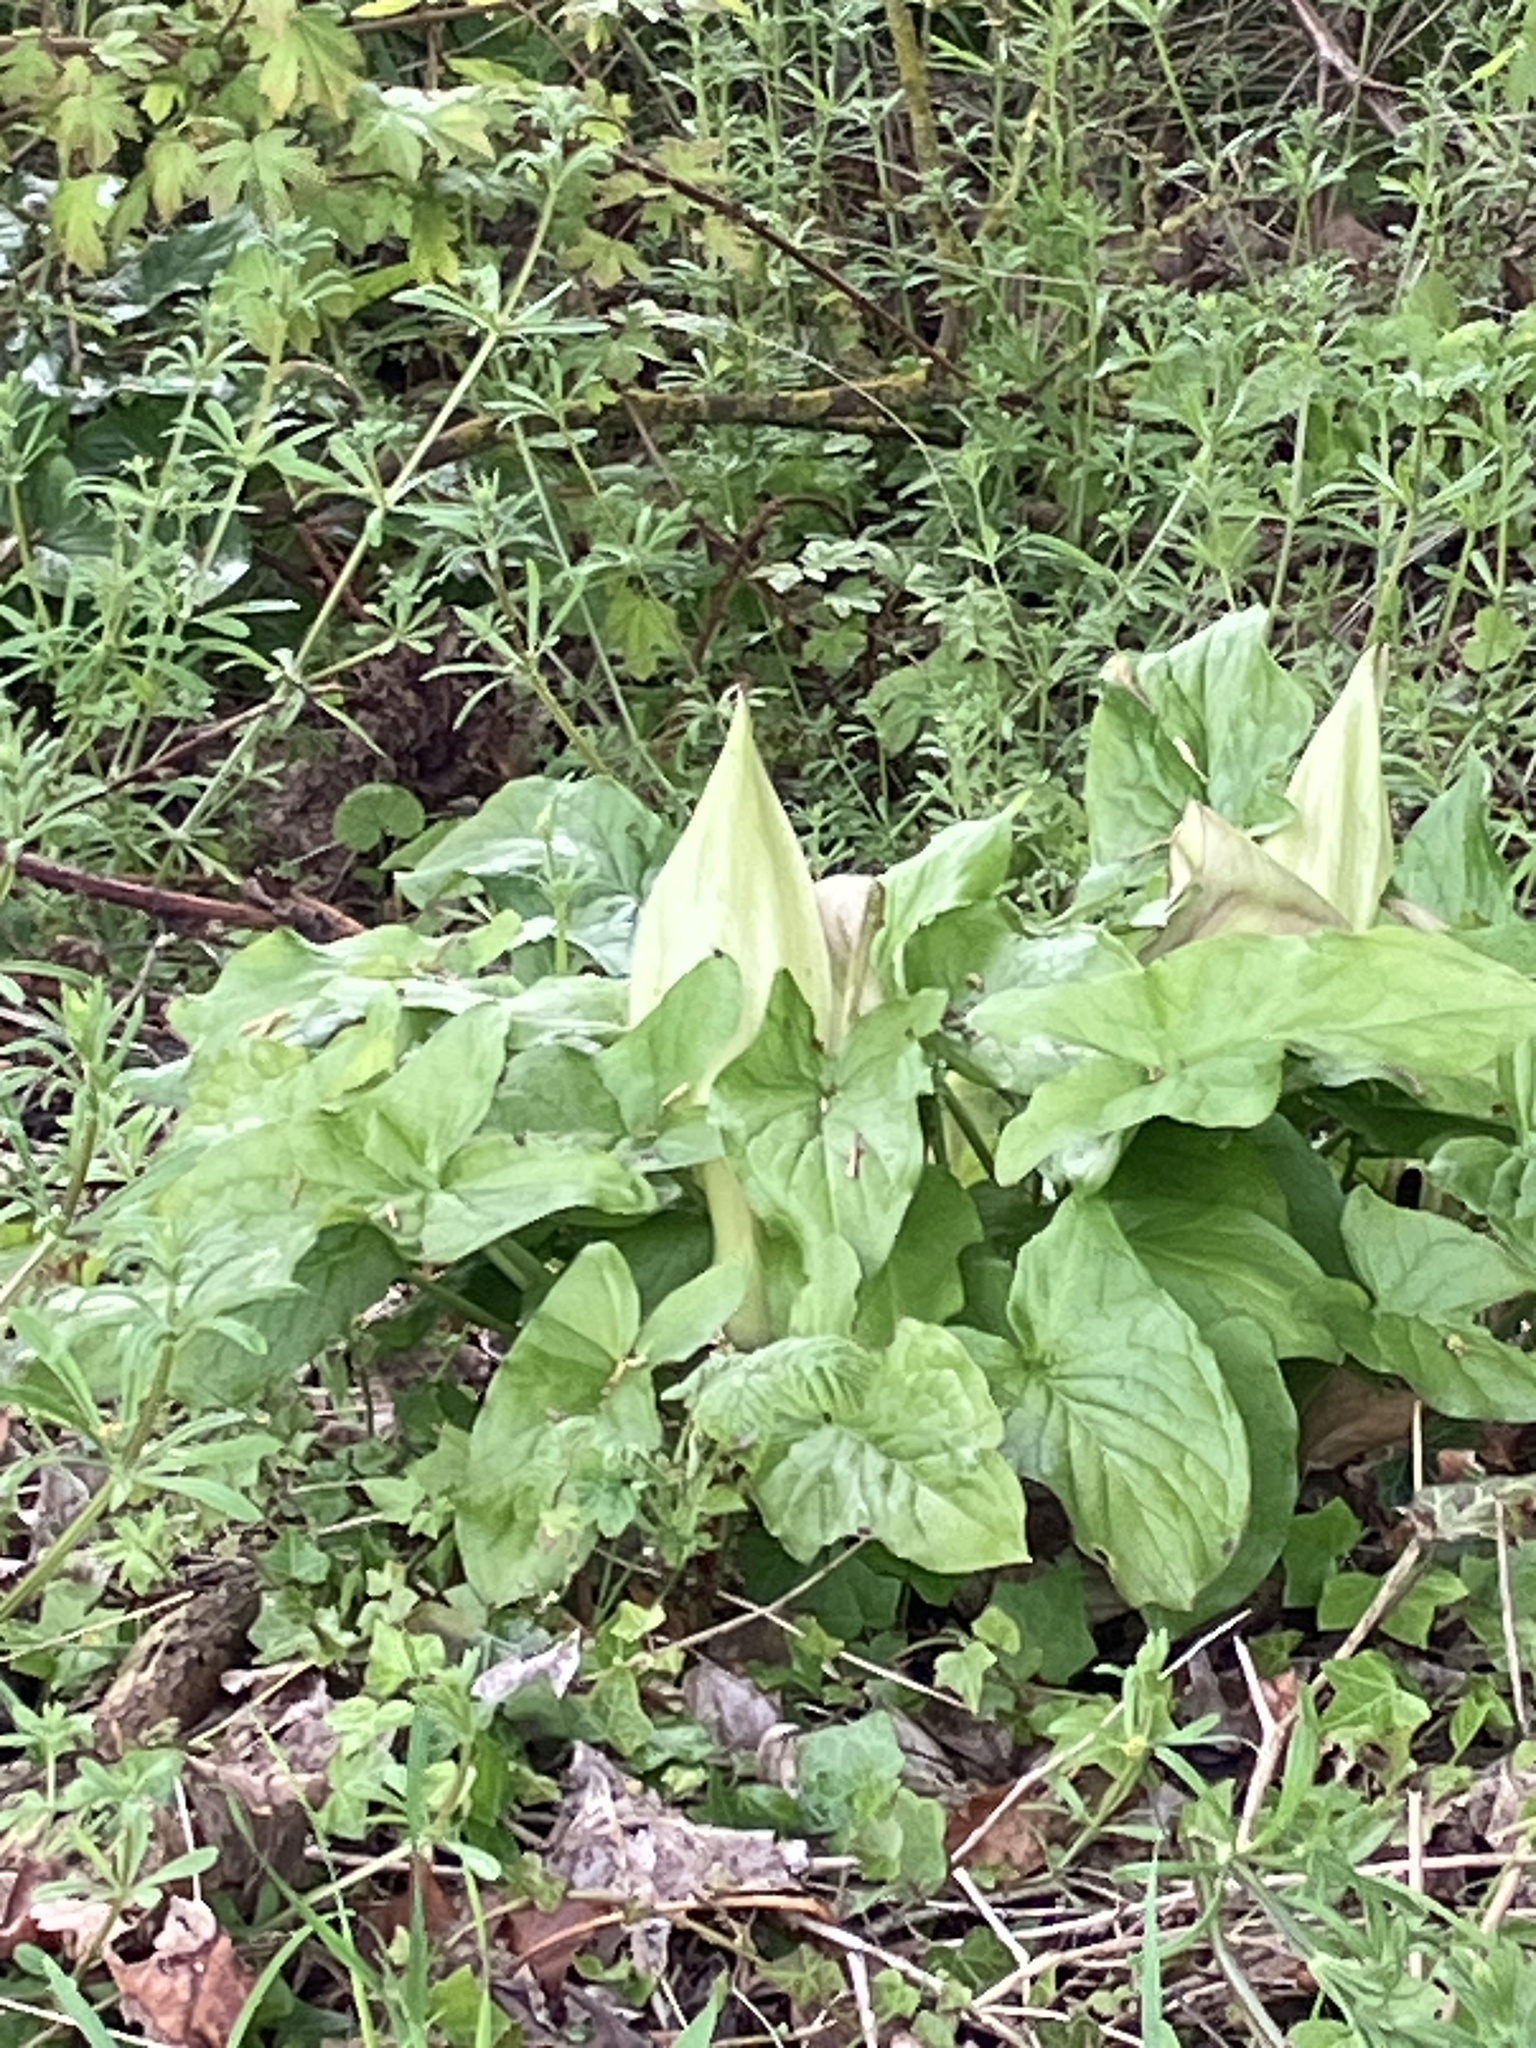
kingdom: Plantae
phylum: Tracheophyta
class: Liliopsida
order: Alismatales
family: Araceae
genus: Arum
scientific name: Arum maculatum
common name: Lords-and-ladies
